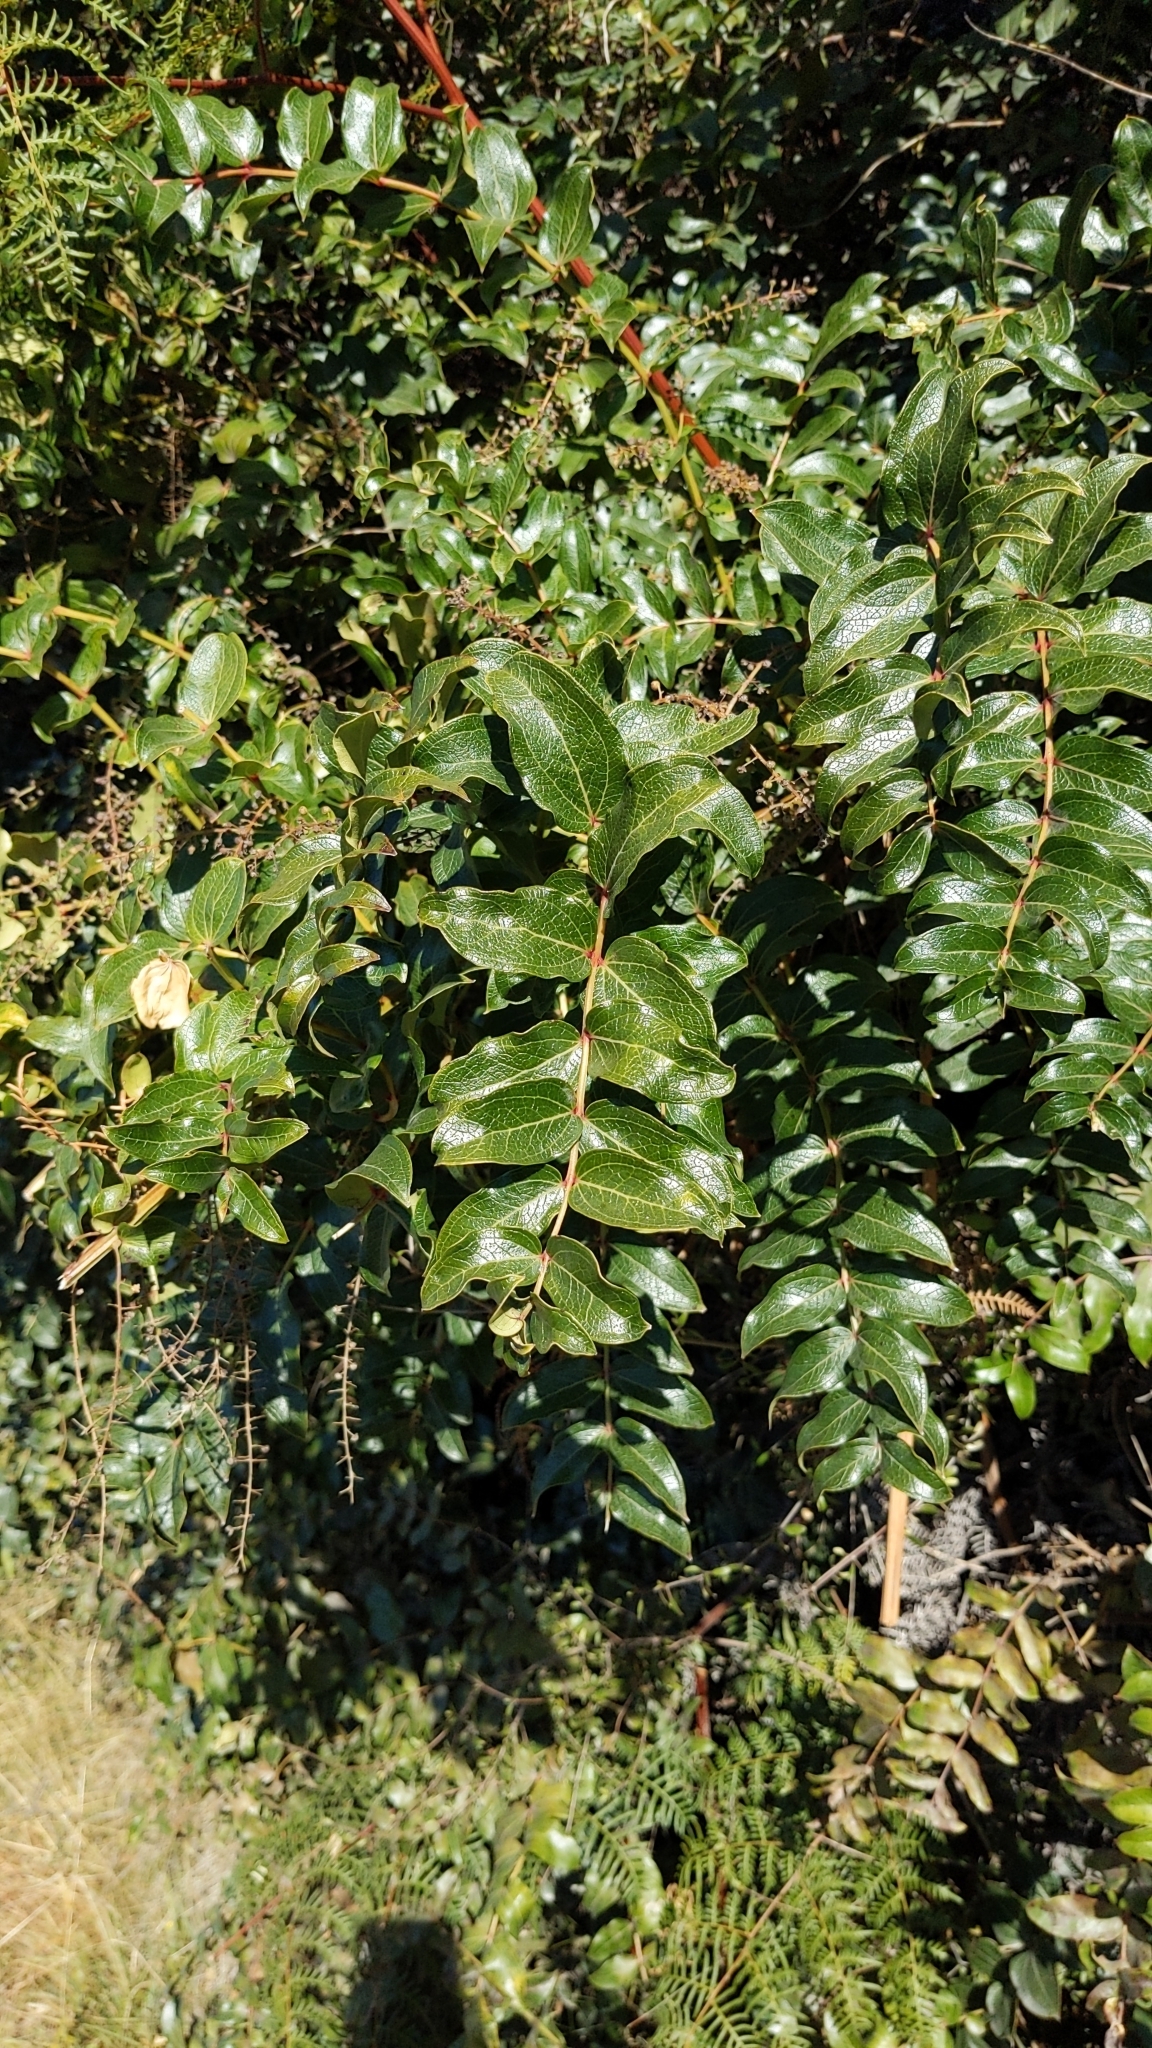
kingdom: Plantae
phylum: Tracheophyta
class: Magnoliopsida
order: Cucurbitales
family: Coriariaceae
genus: Coriaria
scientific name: Coriaria arborea
